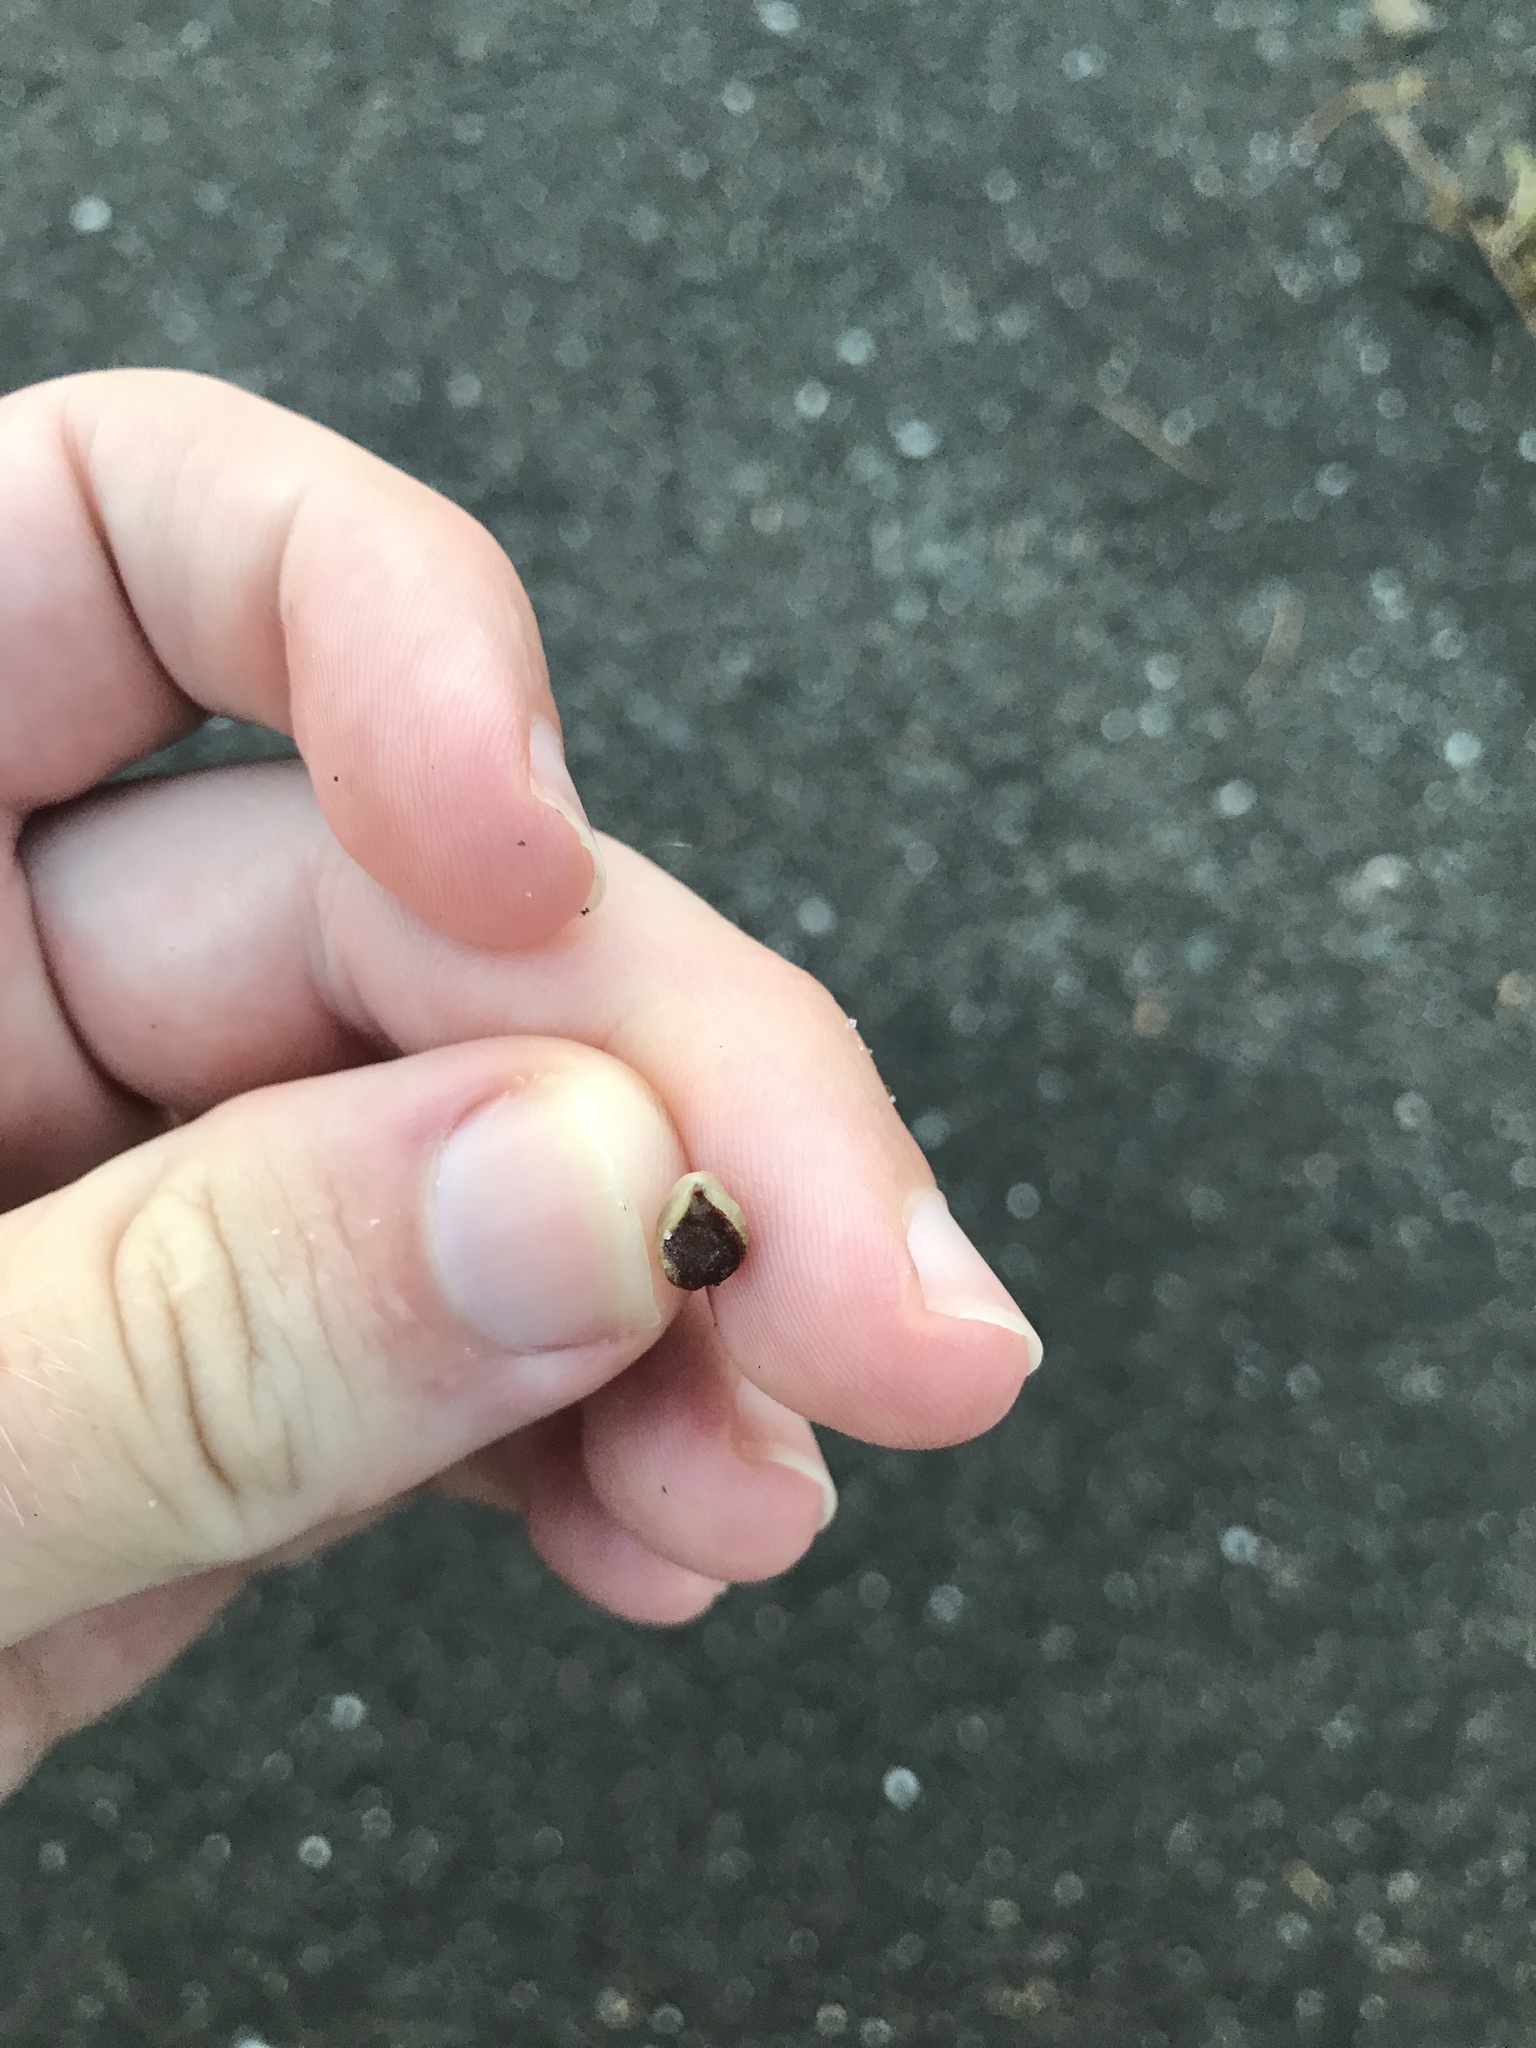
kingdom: Plantae
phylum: Tracheophyta
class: Magnoliopsida
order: Vitales
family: Vitaceae
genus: Pseudocayratia
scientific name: Pseudocayratia yoshimurae
